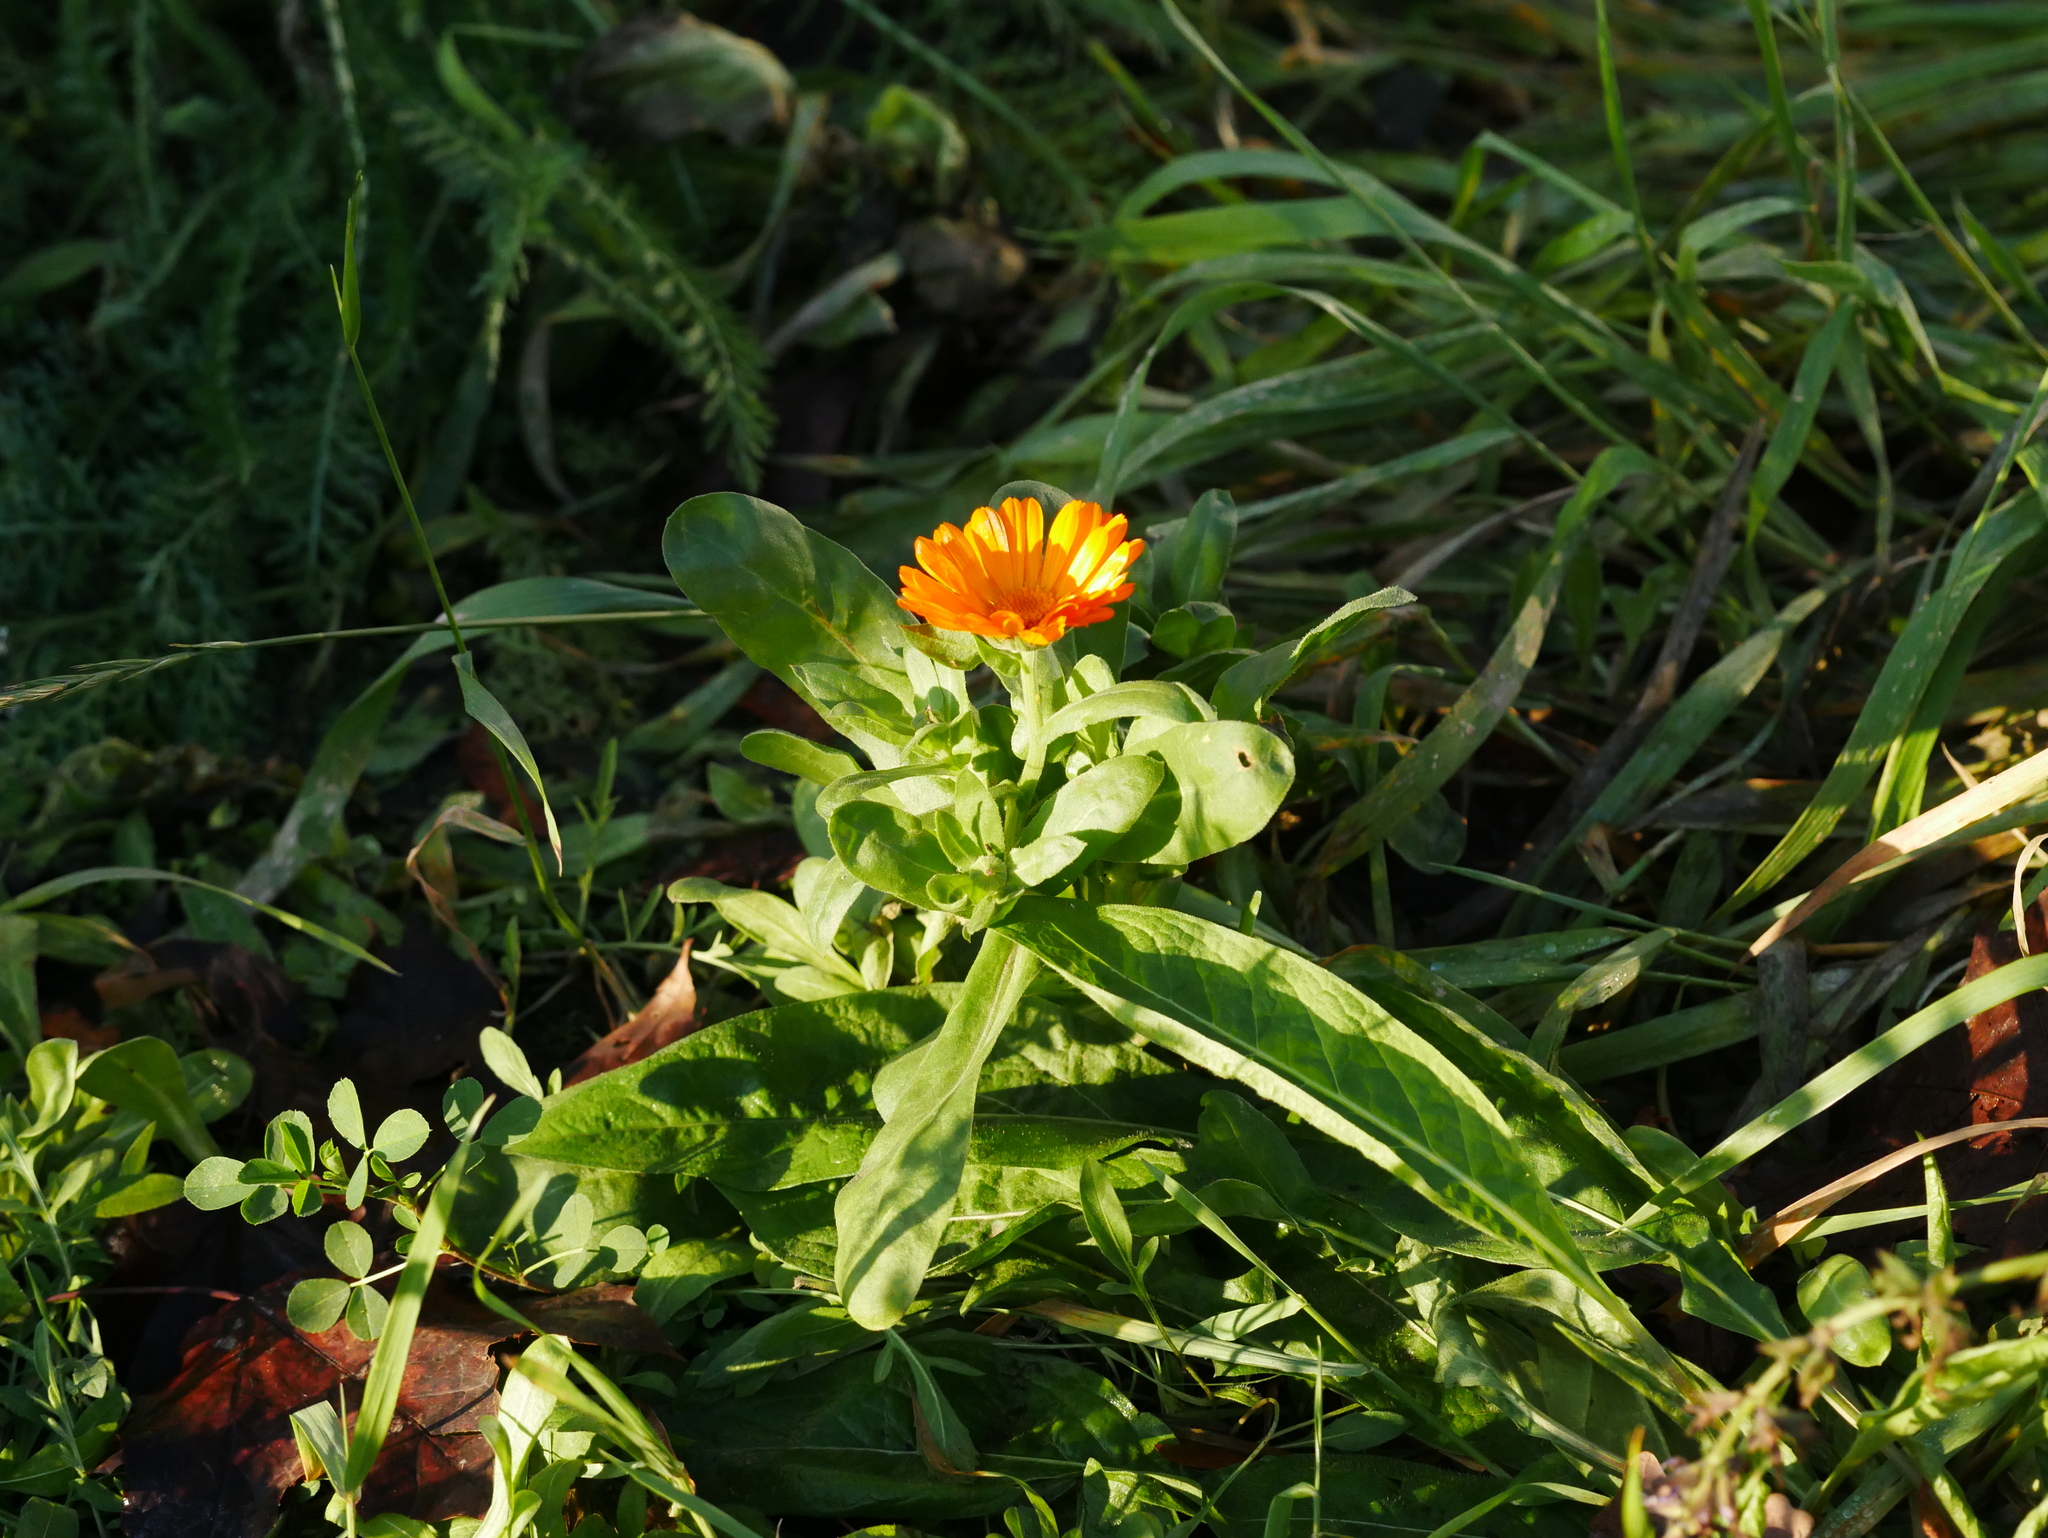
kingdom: Plantae
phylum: Tracheophyta
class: Magnoliopsida
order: Asterales
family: Asteraceae
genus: Calendula
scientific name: Calendula officinalis
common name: Pot marigold
